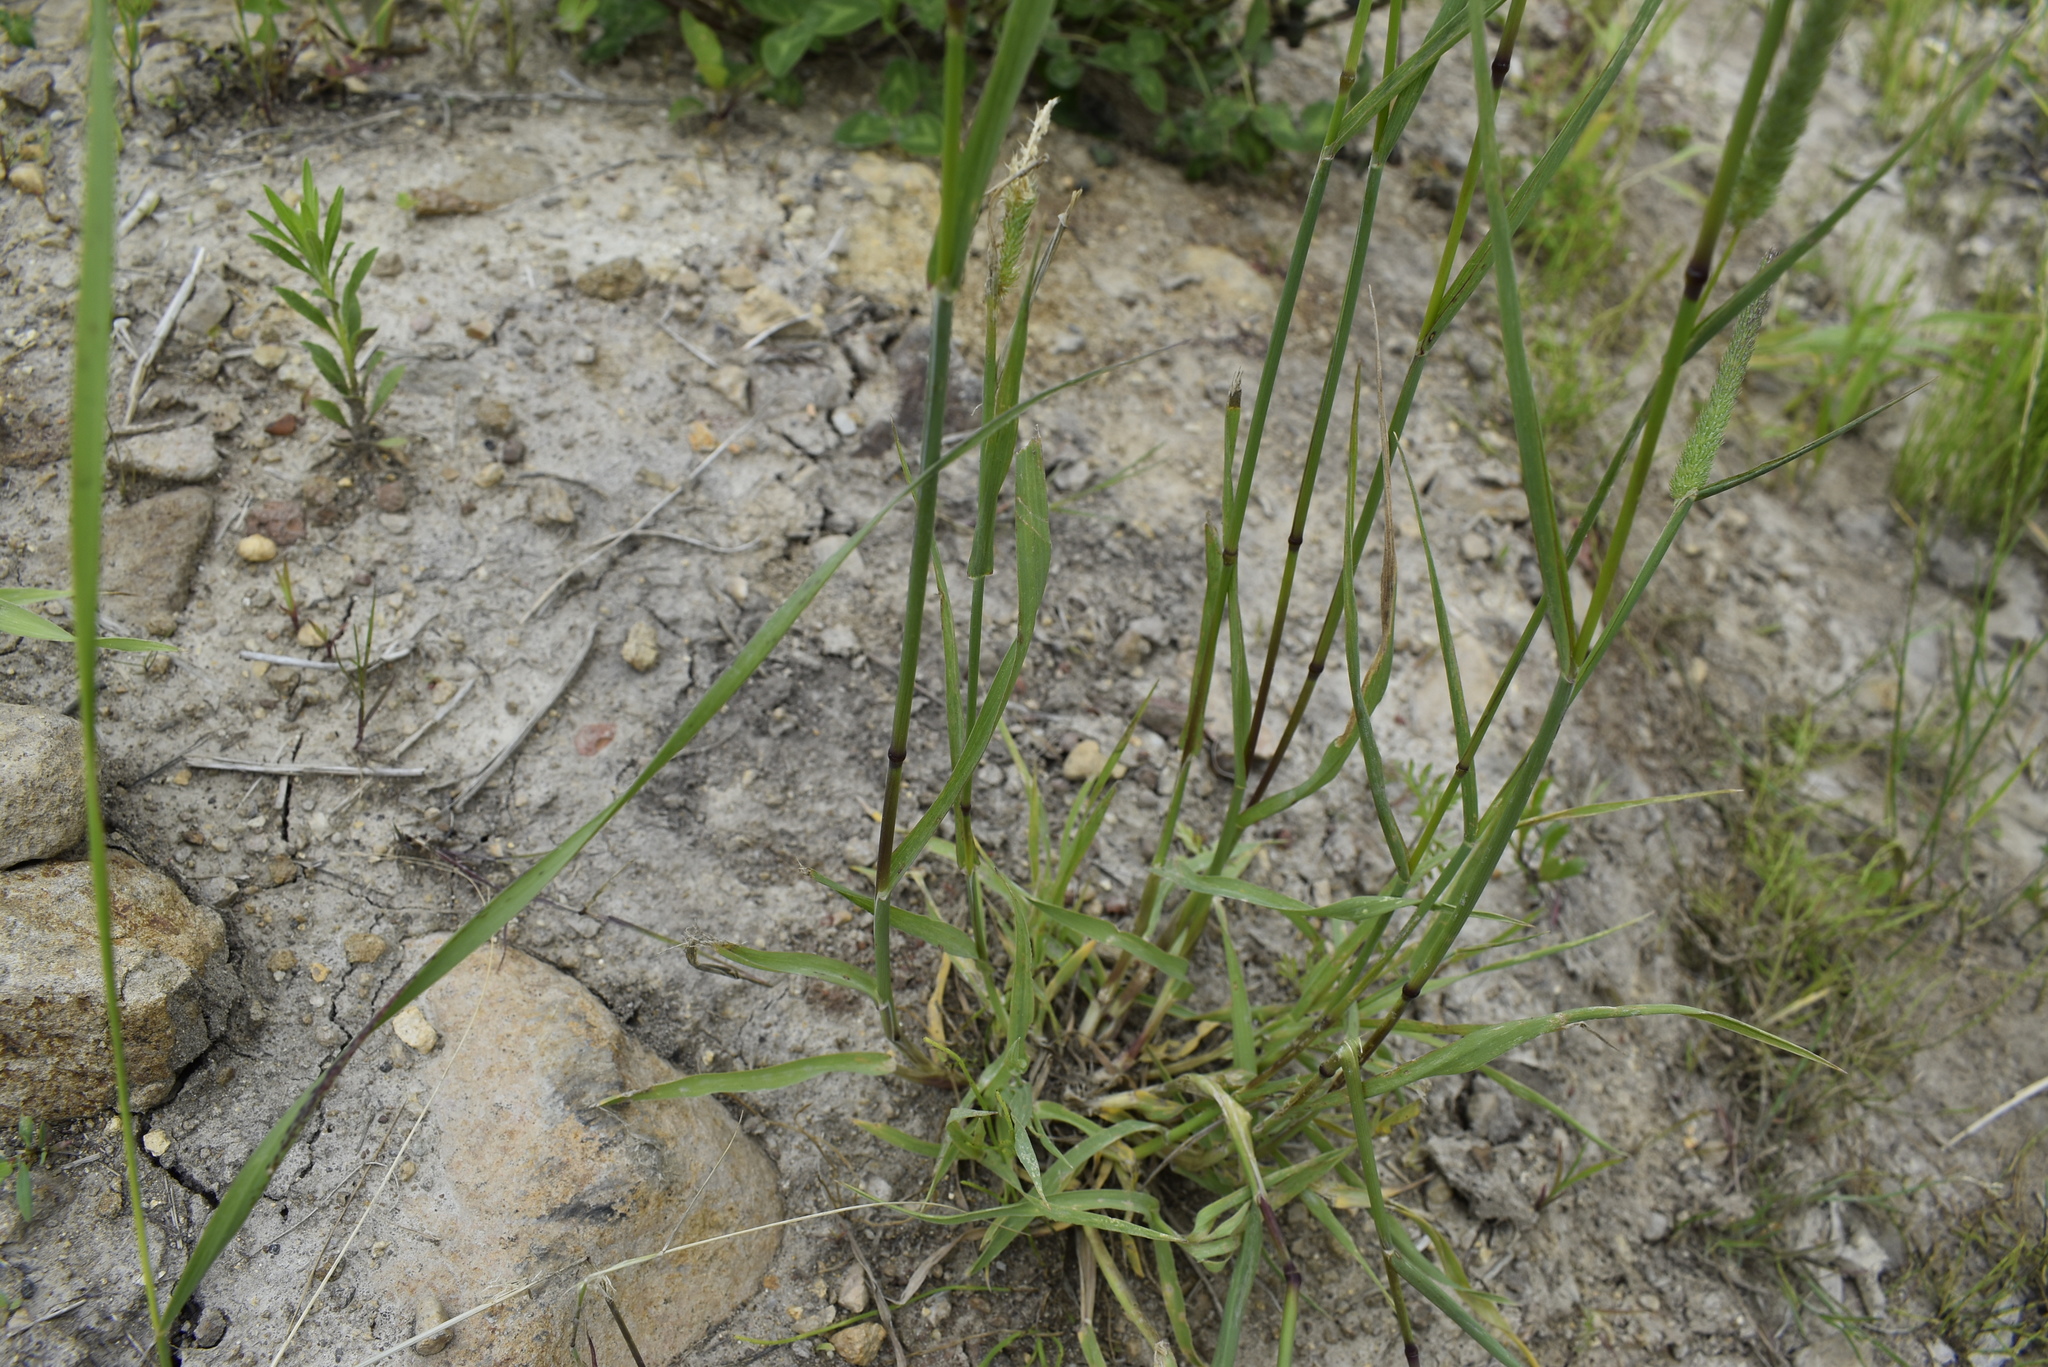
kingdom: Plantae
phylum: Tracheophyta
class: Liliopsida
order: Poales
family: Poaceae
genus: Phleum
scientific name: Phleum pratense
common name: Timothy grass
